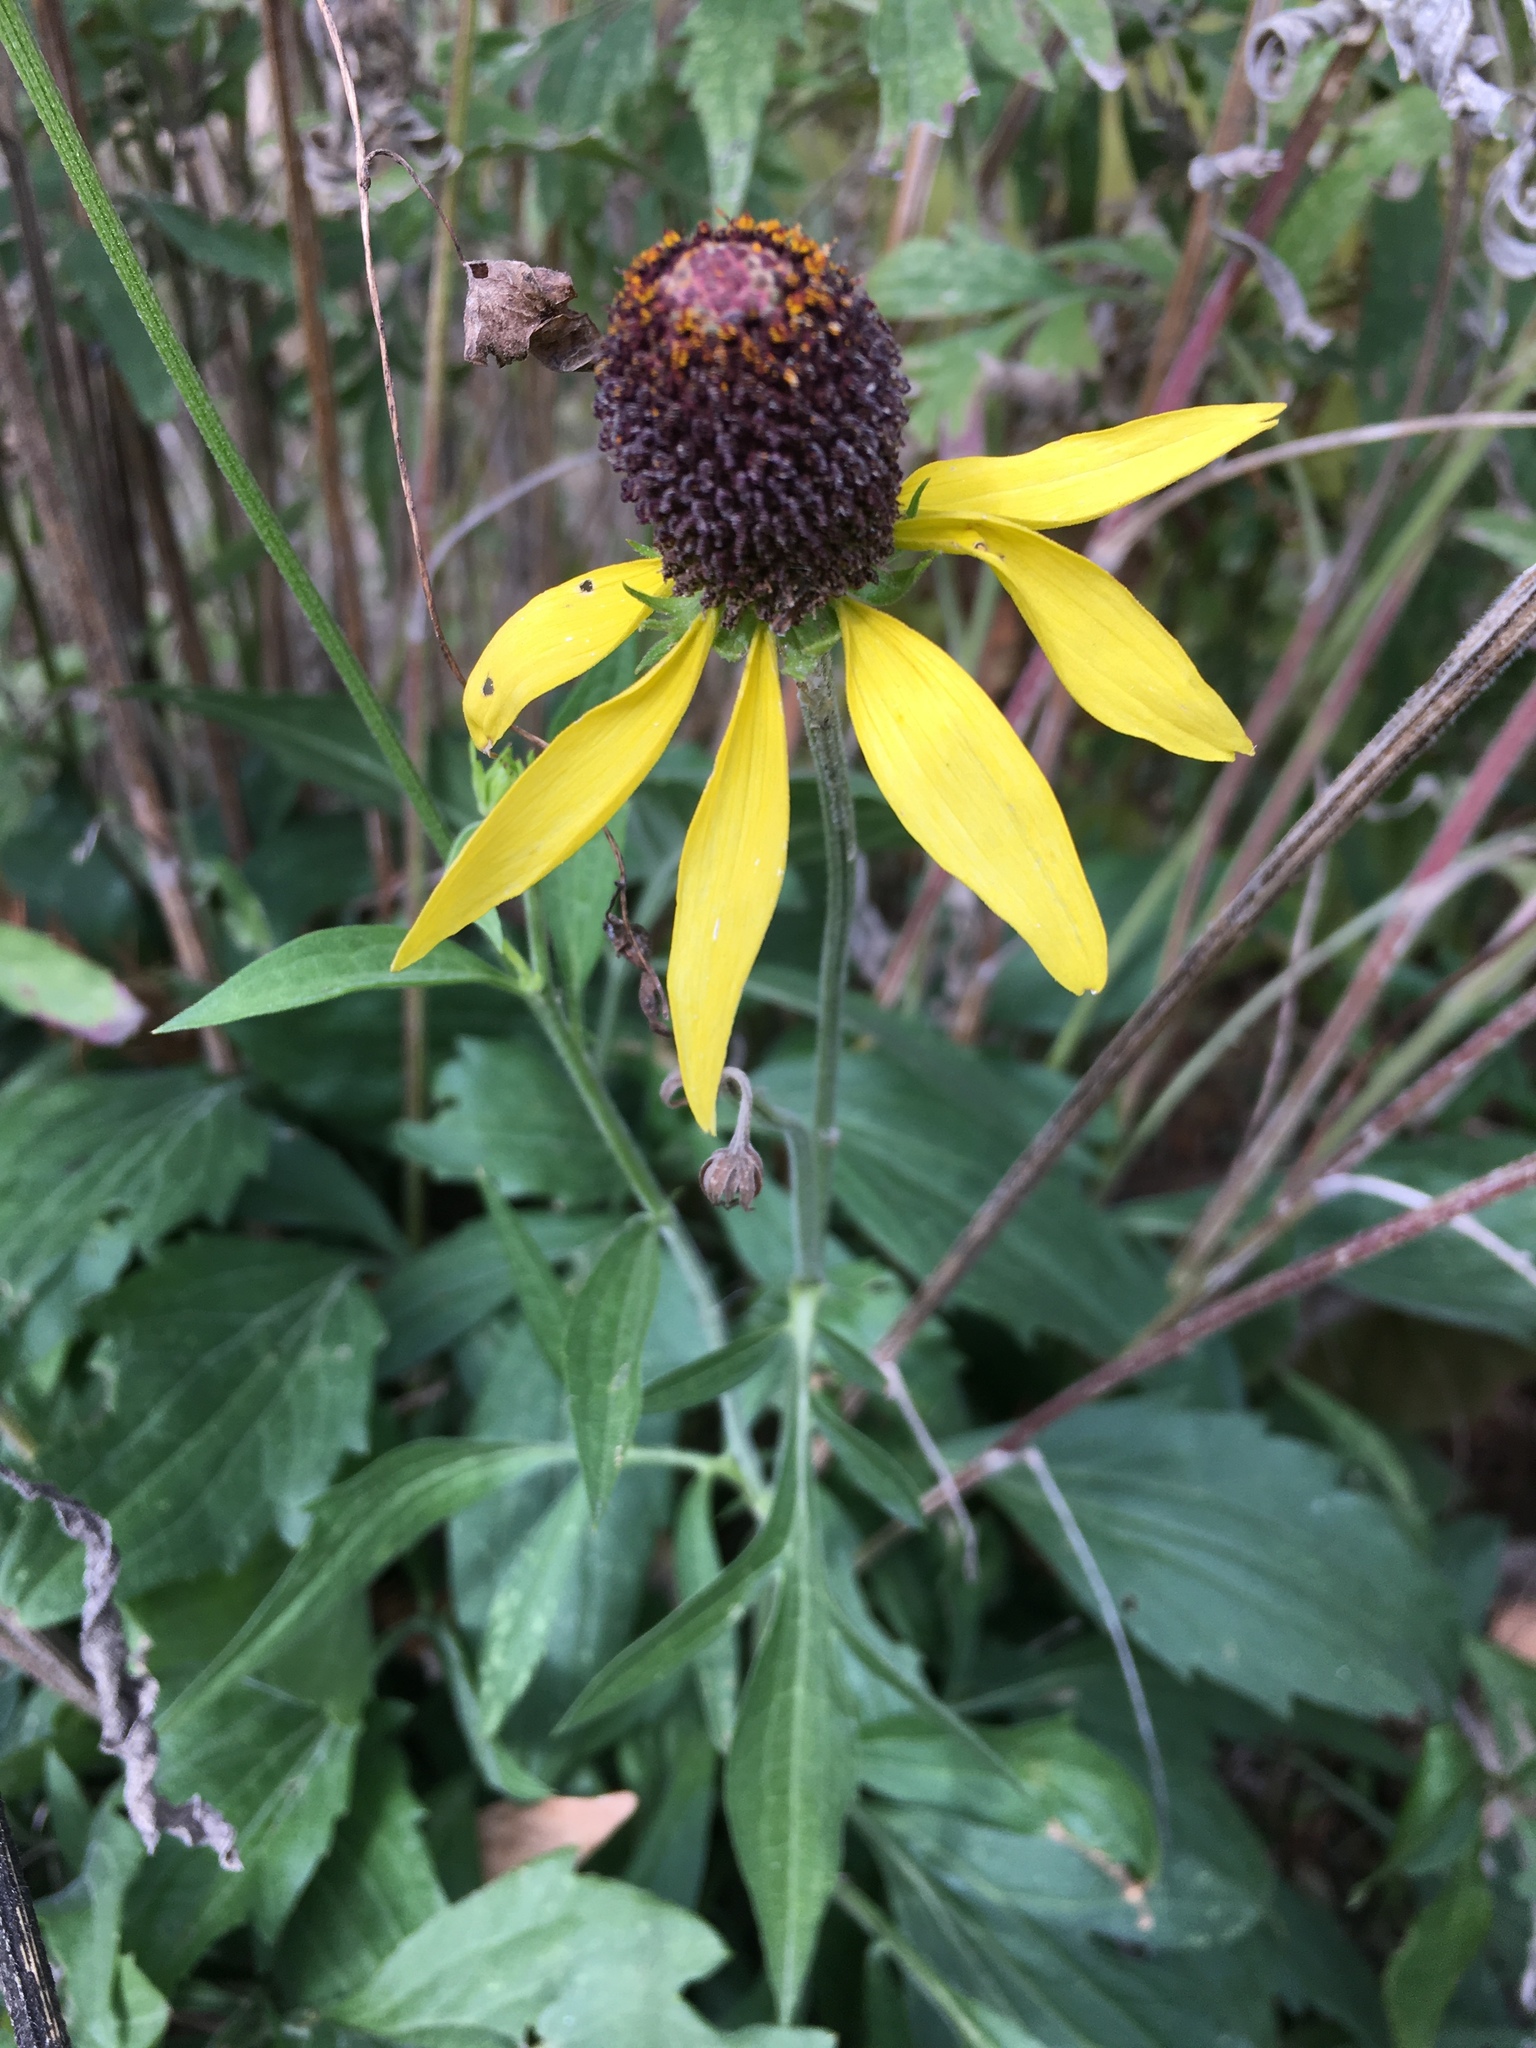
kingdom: Plantae
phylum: Tracheophyta
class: Magnoliopsida
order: Asterales
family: Asteraceae
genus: Ratibida
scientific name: Ratibida pinnata
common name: Drooping prairie-coneflower
